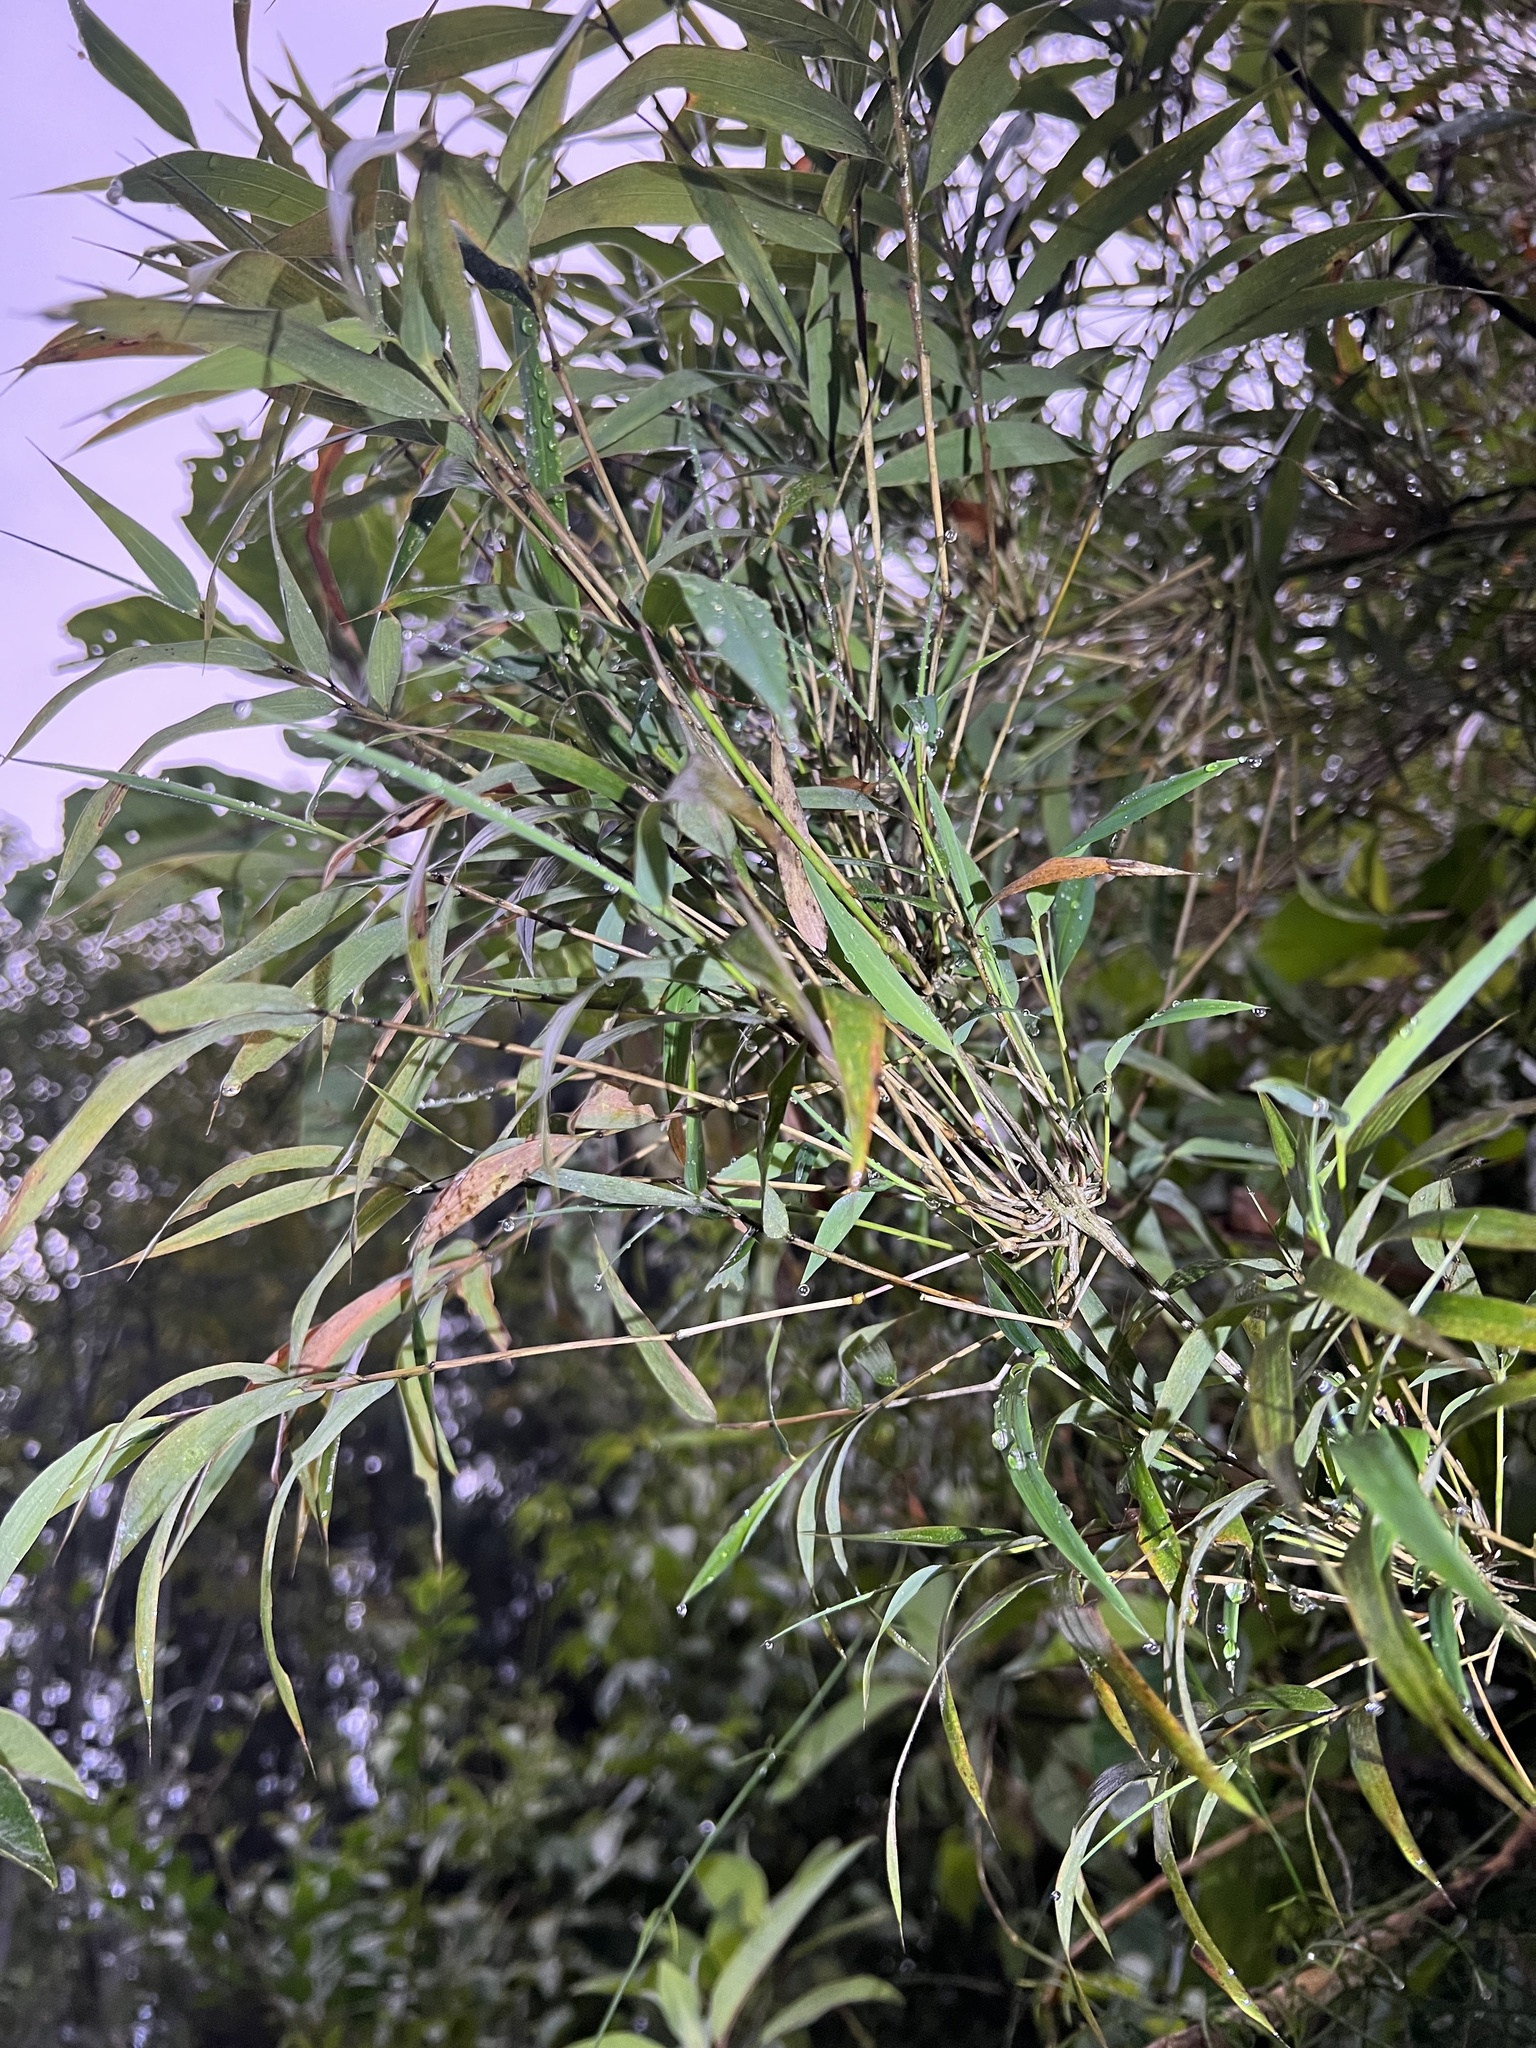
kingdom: Plantae
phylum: Tracheophyta
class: Liliopsida
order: Poales
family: Poaceae
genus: Chusquea
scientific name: Chusquea scandens
